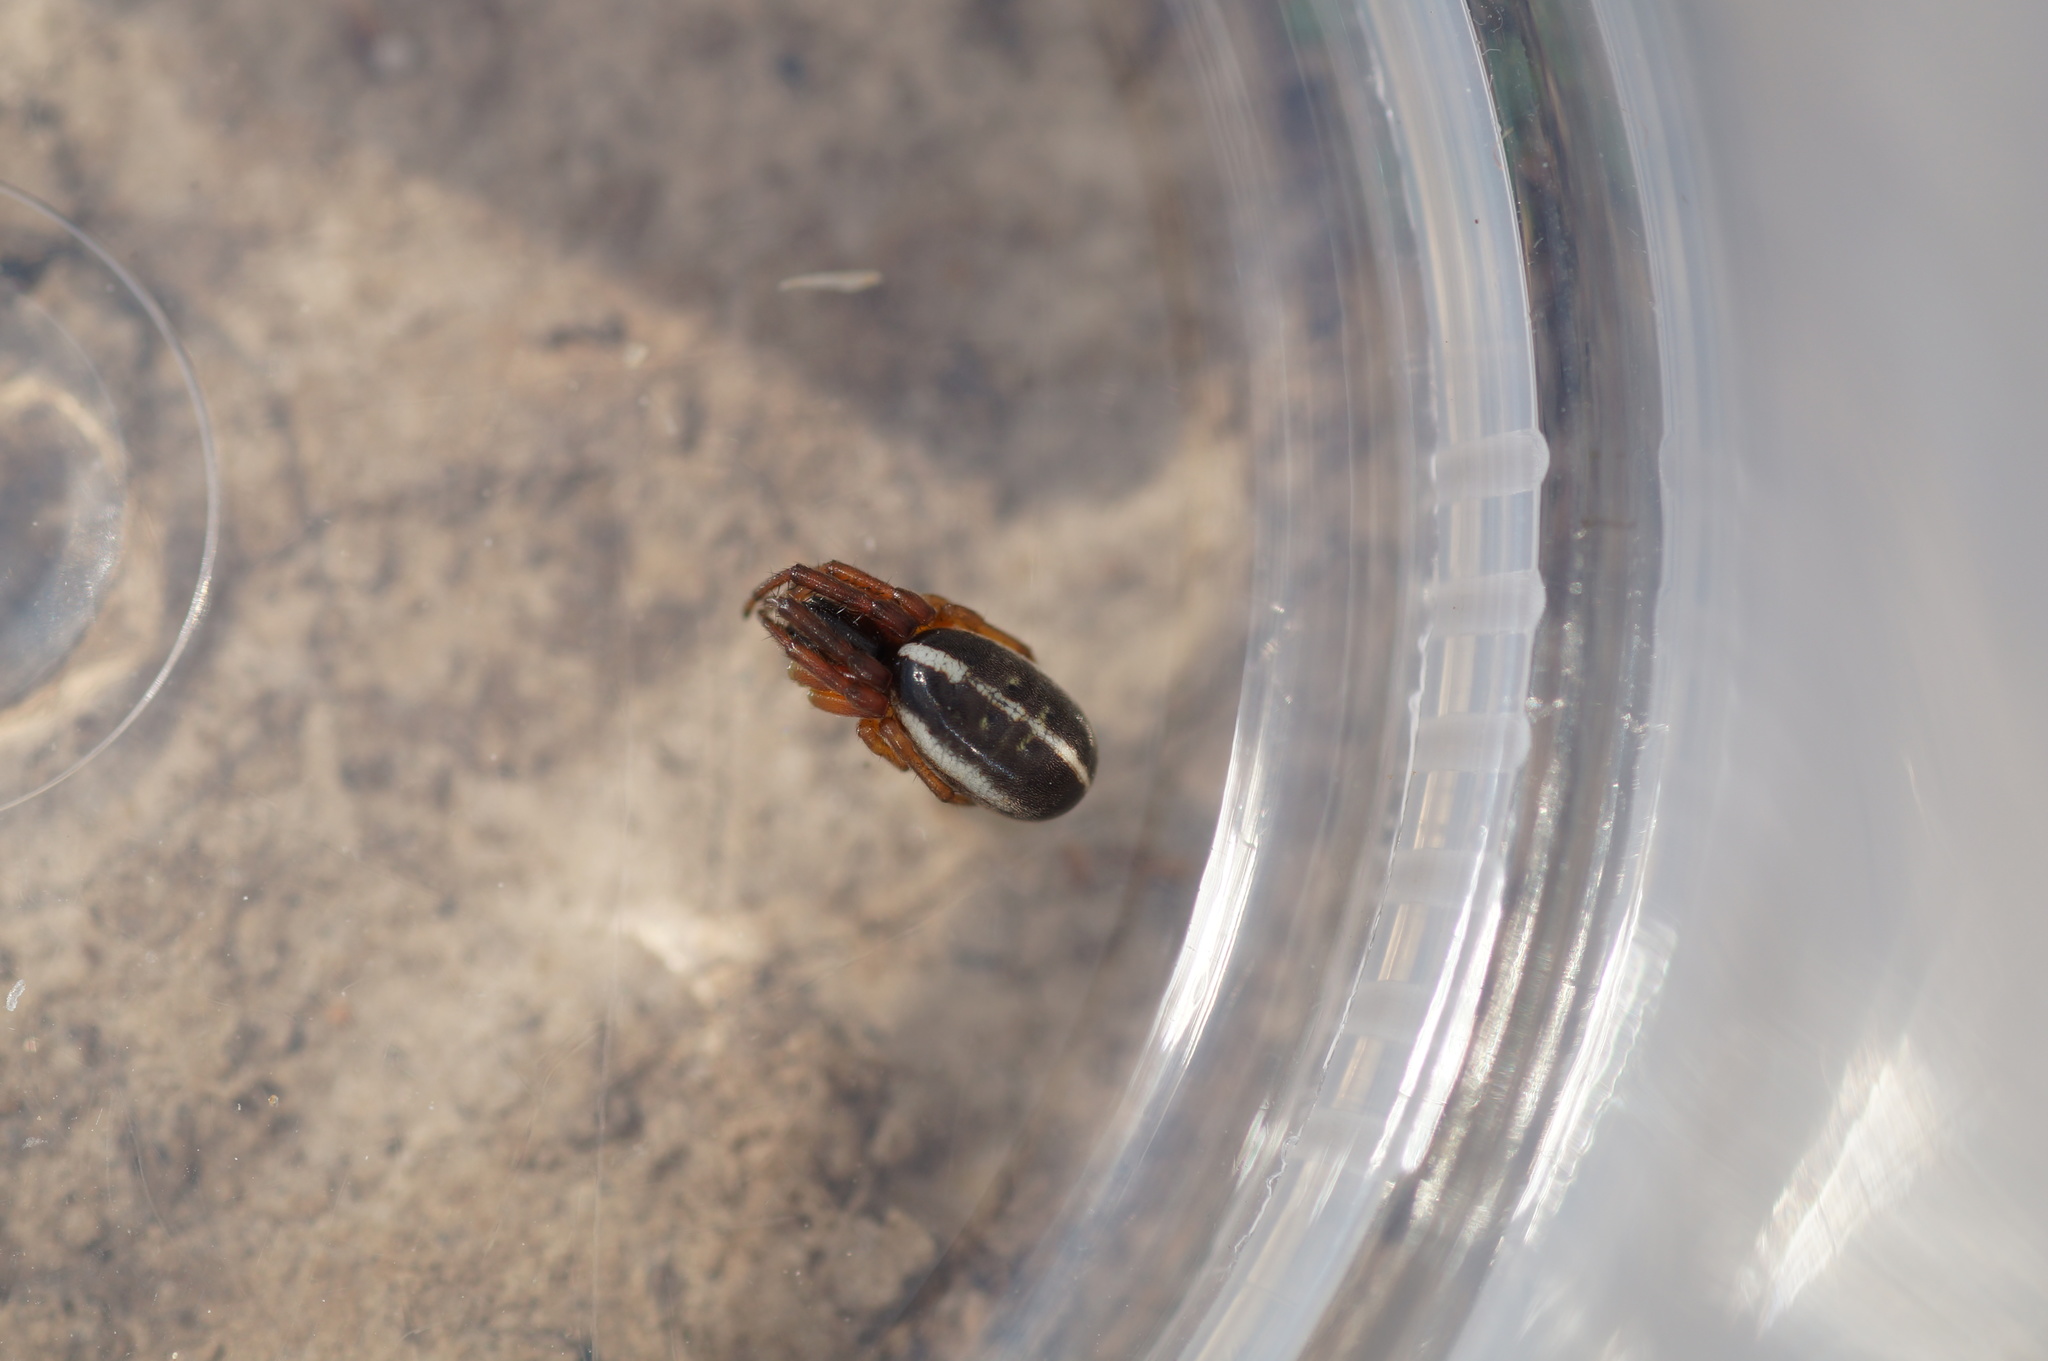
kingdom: Animalia
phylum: Arthropoda
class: Arachnida
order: Araneae
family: Araneidae
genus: Singa
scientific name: Singa nitidula
